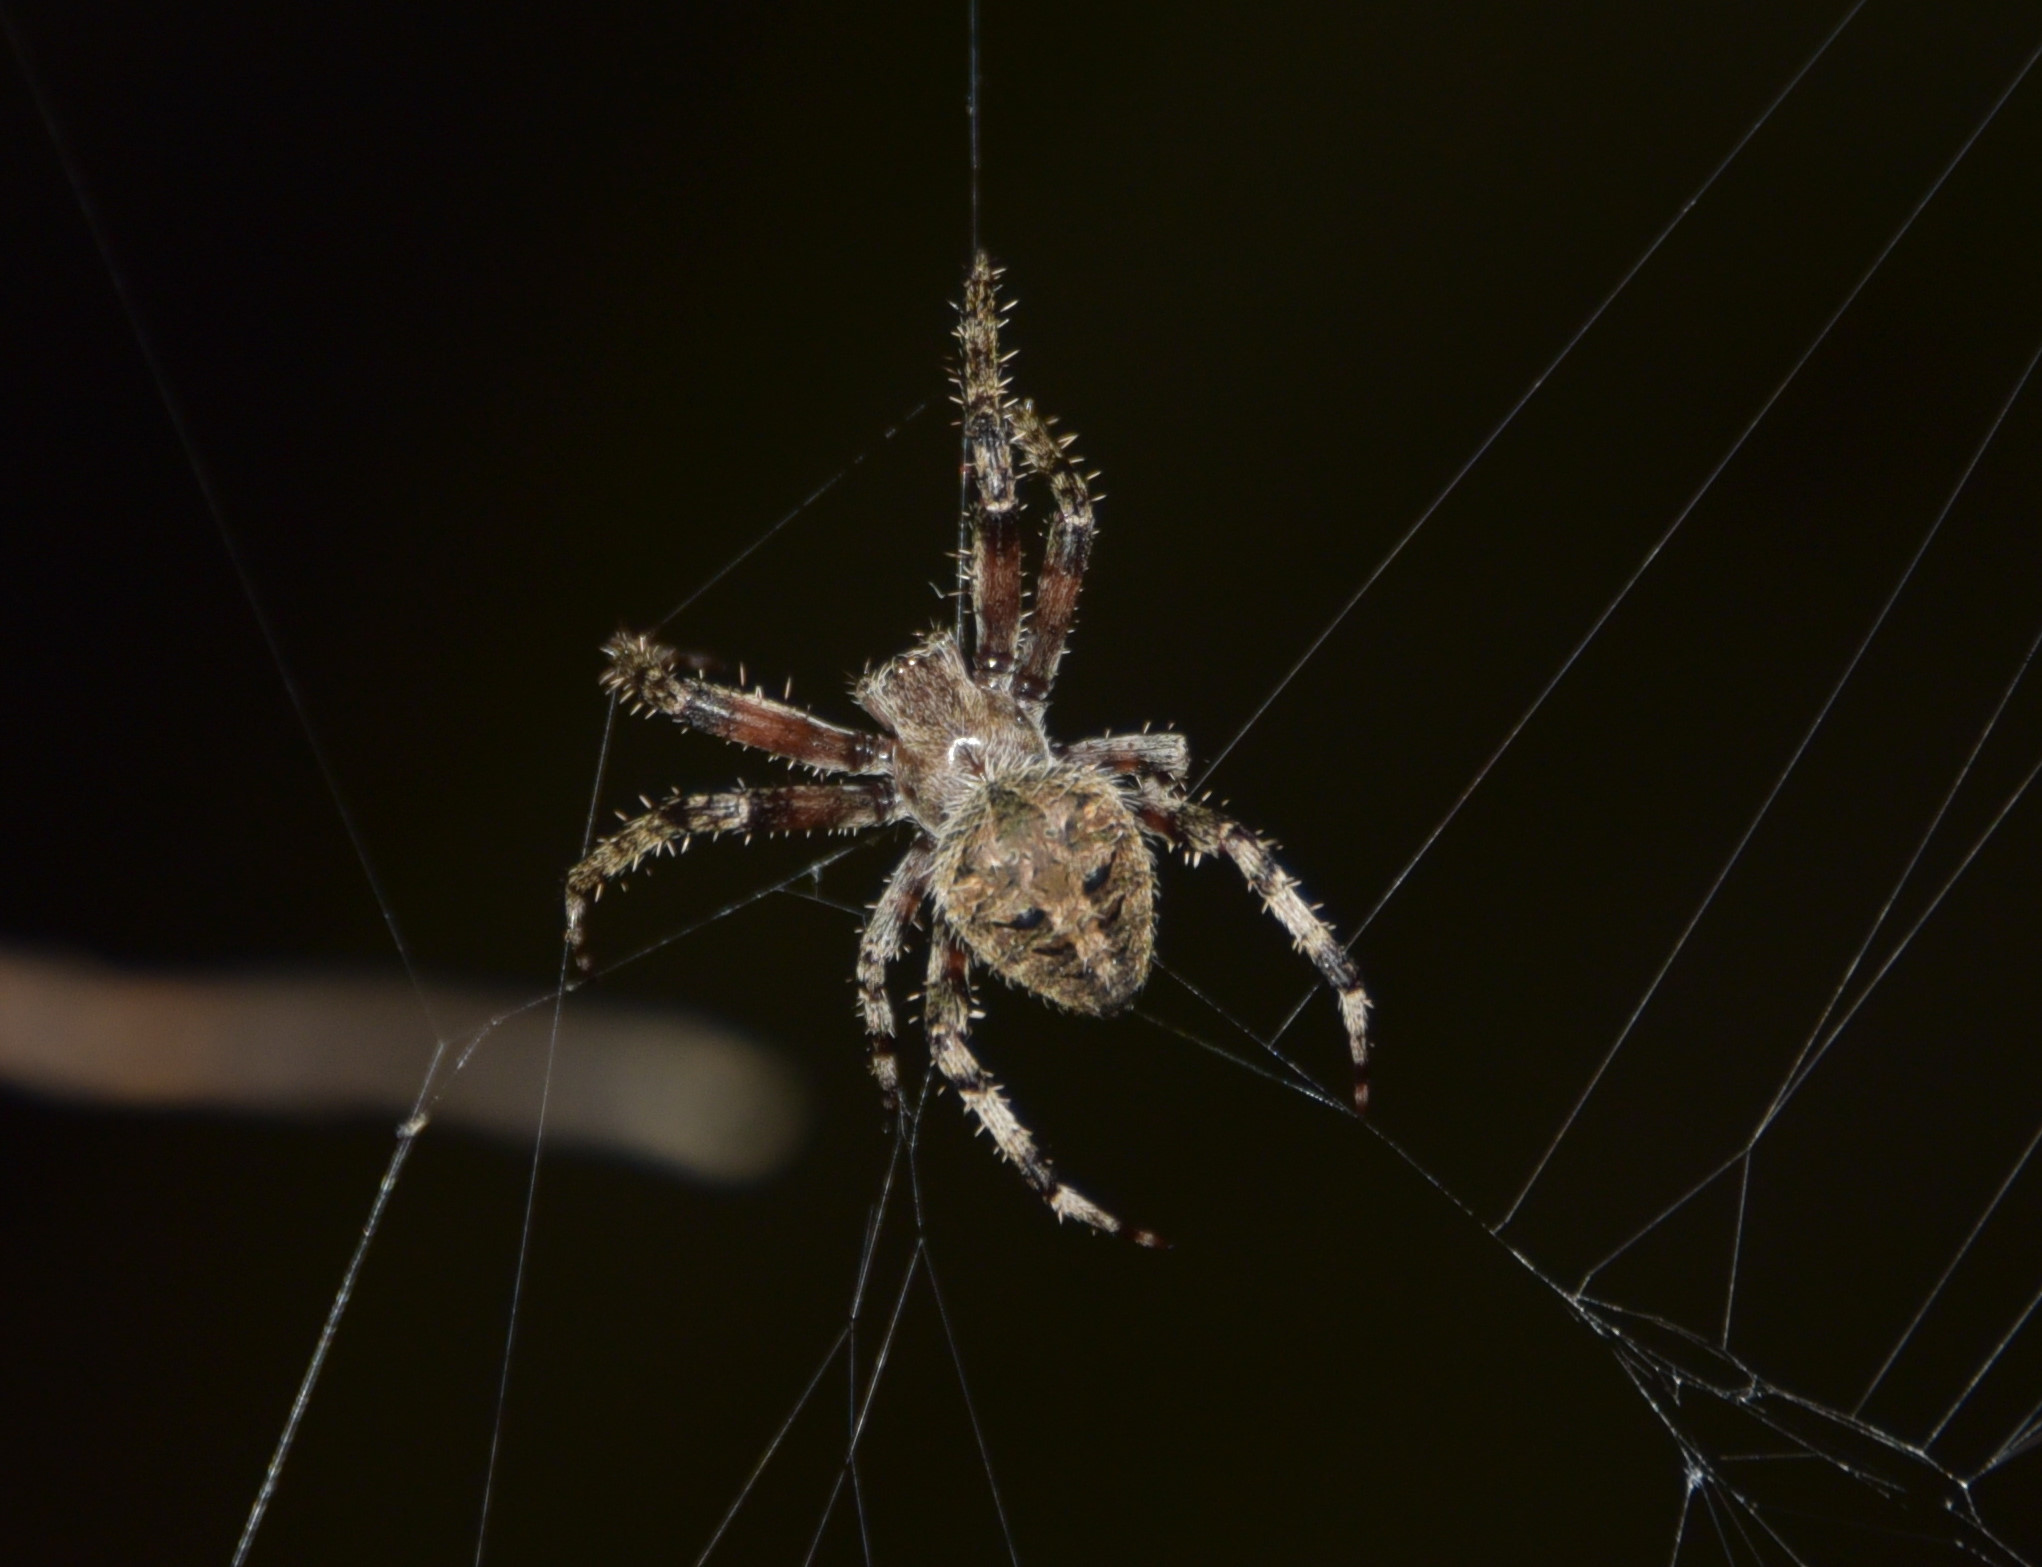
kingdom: Animalia
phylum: Arthropoda
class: Arachnida
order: Araneae
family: Araneidae
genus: Neoscona
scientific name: Neoscona crucifera
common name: Spotted orbweaver
